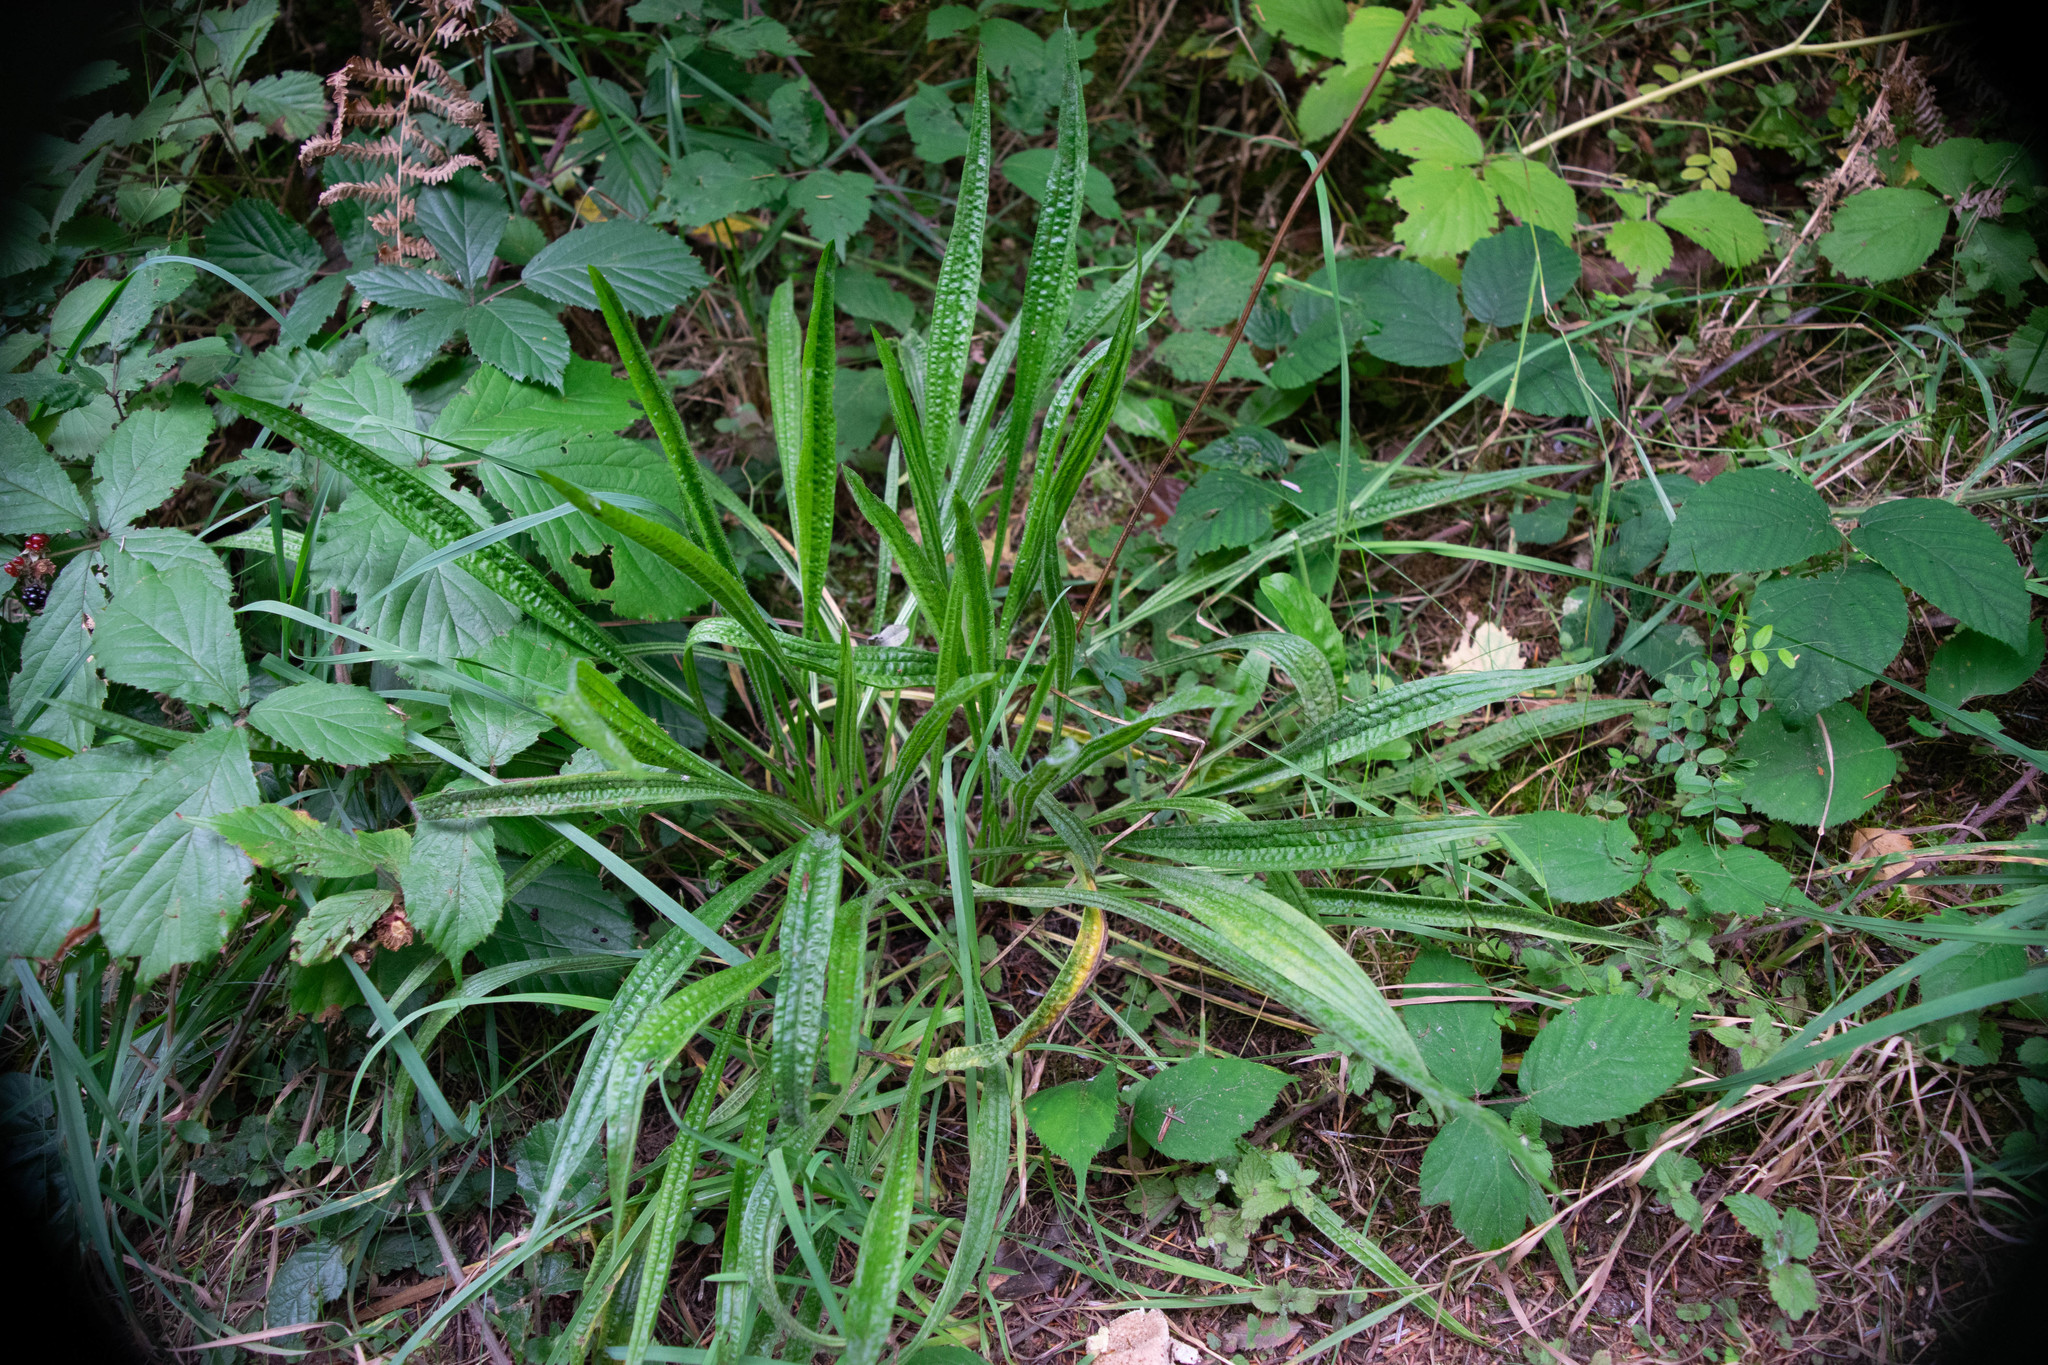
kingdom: Plantae
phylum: Tracheophyta
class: Magnoliopsida
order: Lamiales
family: Plantaginaceae
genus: Plantago
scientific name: Plantago lanceolata
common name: Ribwort plantain
